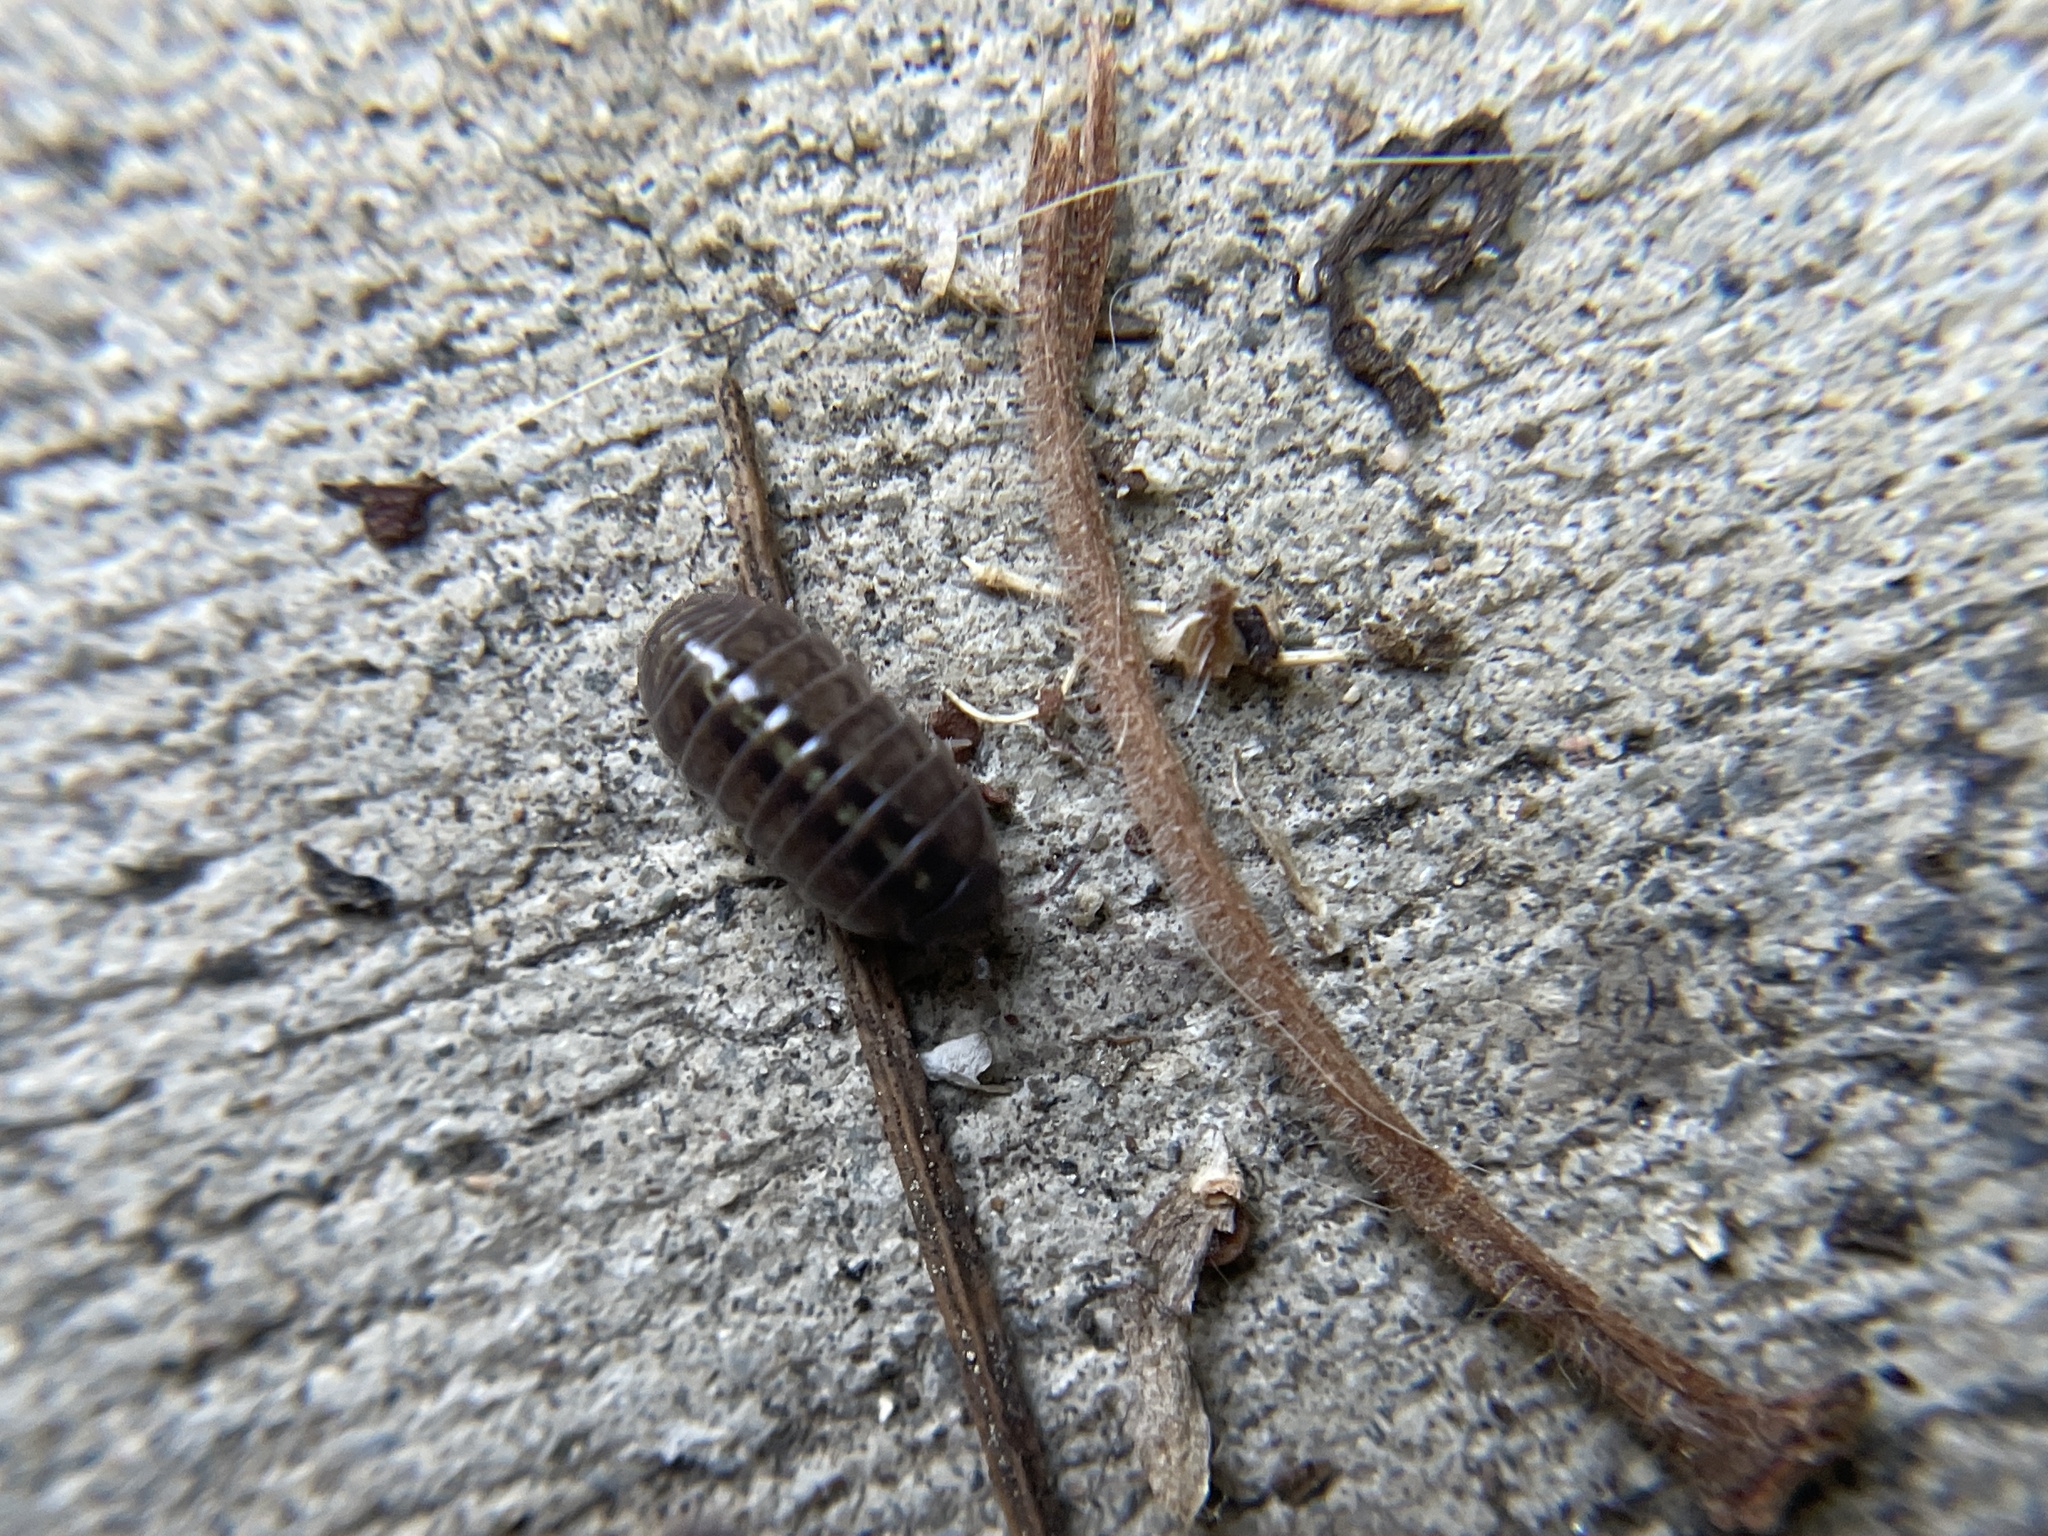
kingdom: Animalia
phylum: Arthropoda
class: Malacostraca
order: Isopoda
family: Armadillidiidae
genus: Armadillidium
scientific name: Armadillidium vulgare
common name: Common pill woodlouse
